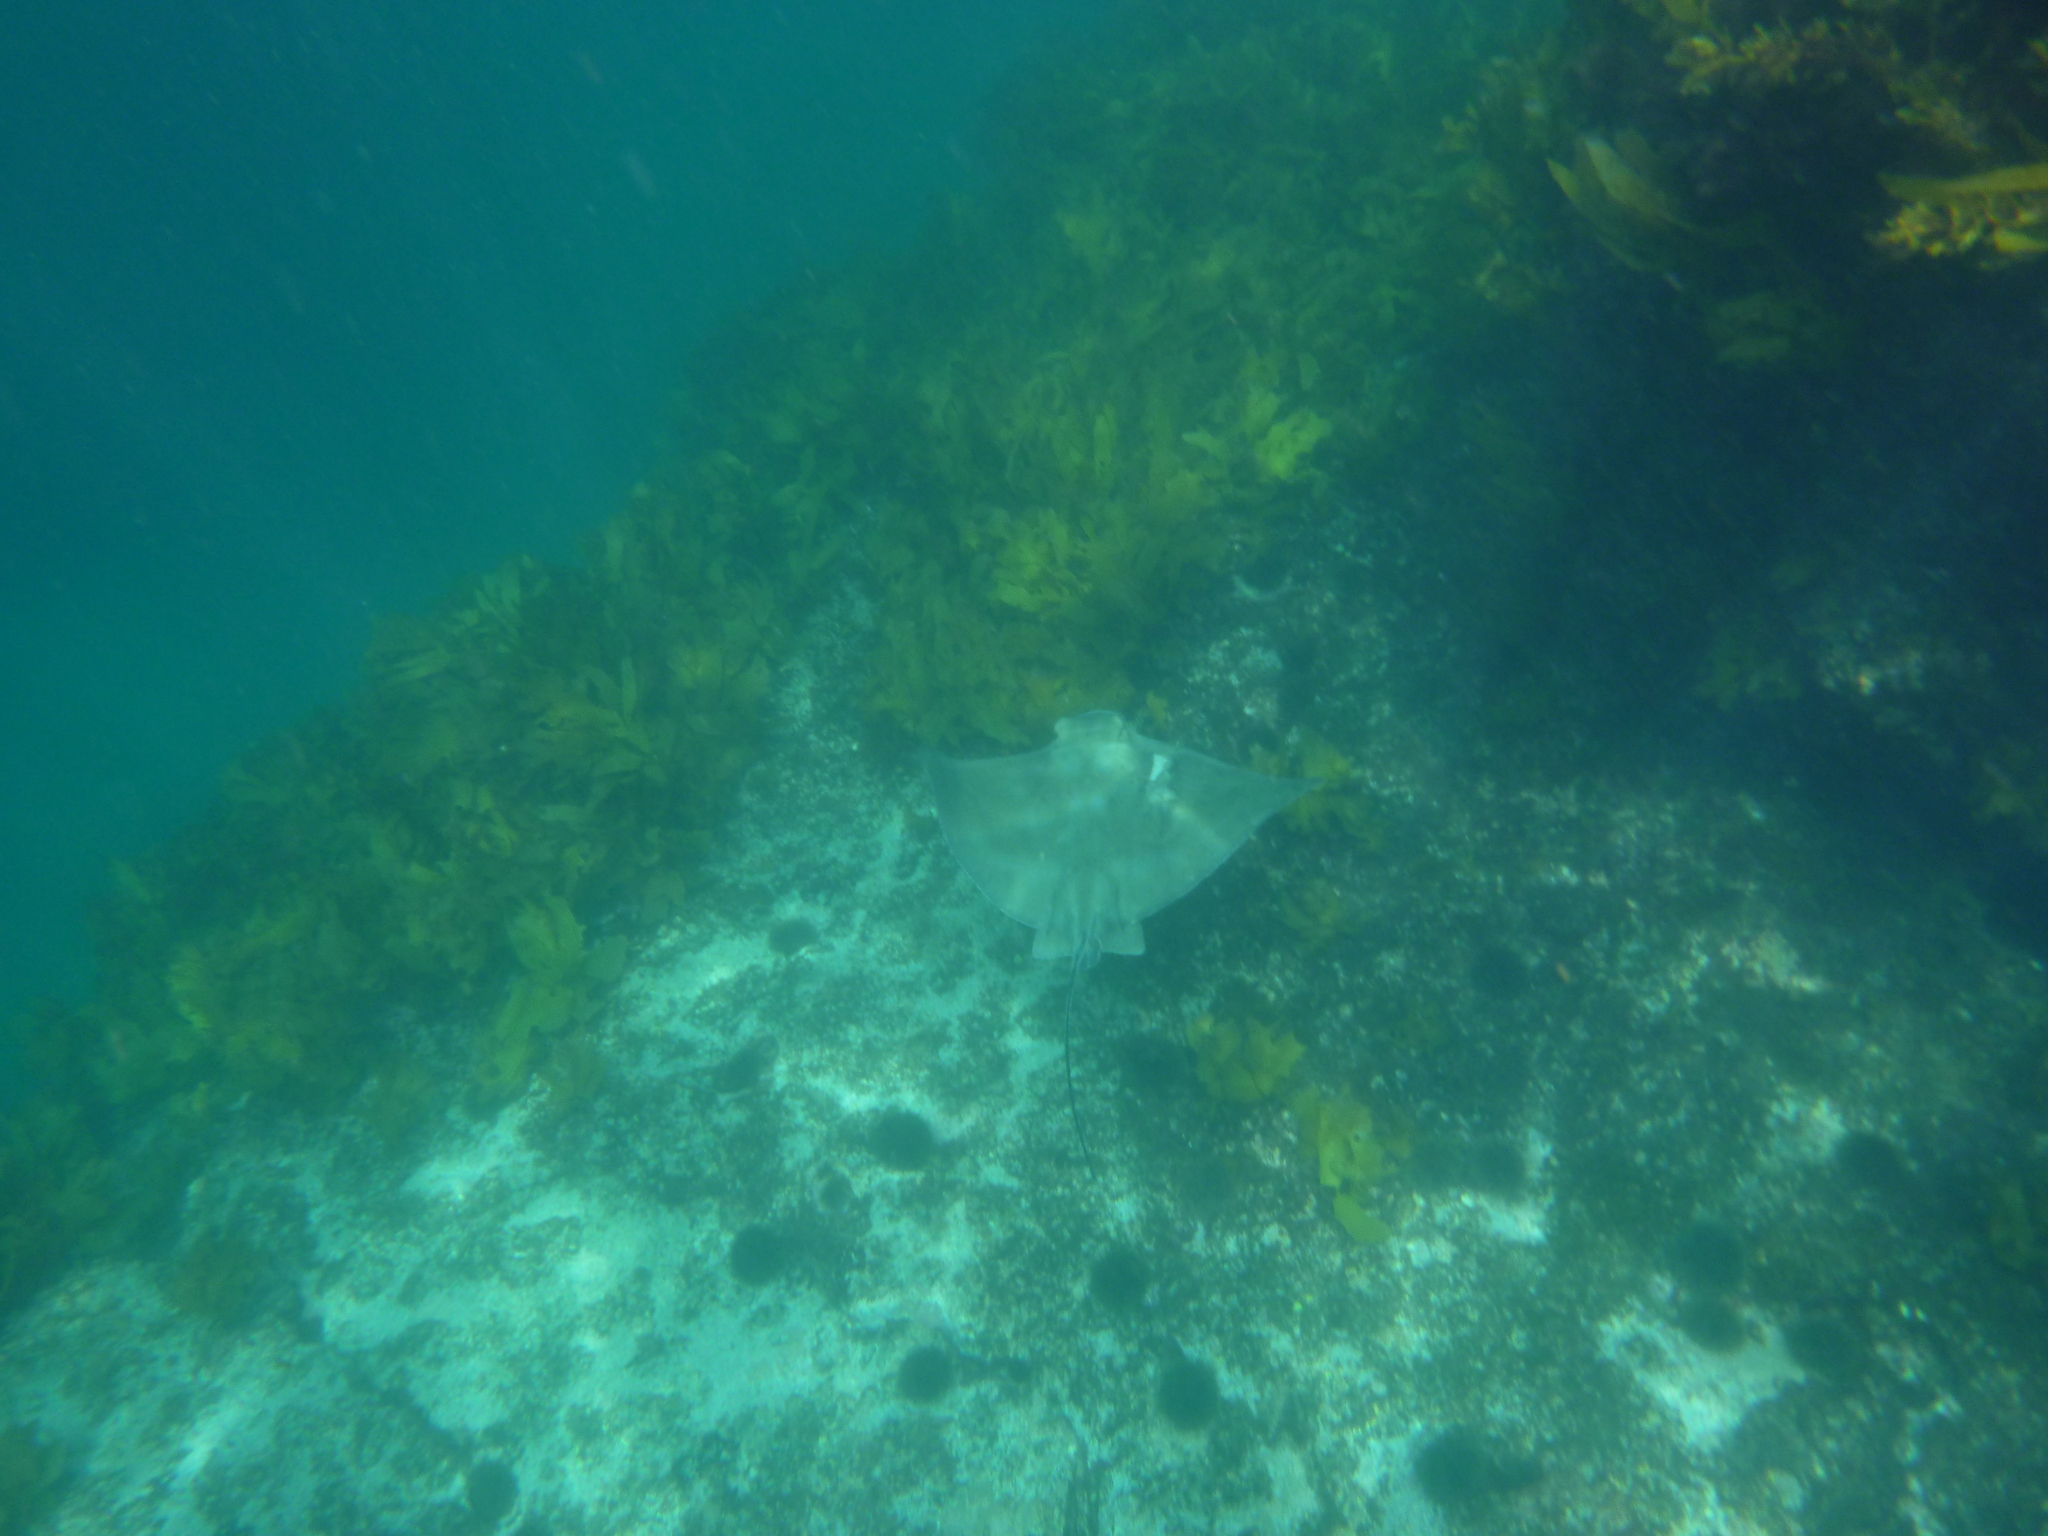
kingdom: Animalia
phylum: Chordata
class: Elasmobranchii
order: Myliobatiformes
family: Myliobatidae
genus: Myliobatis
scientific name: Myliobatis tenuicaudatus
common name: Eagle ray
